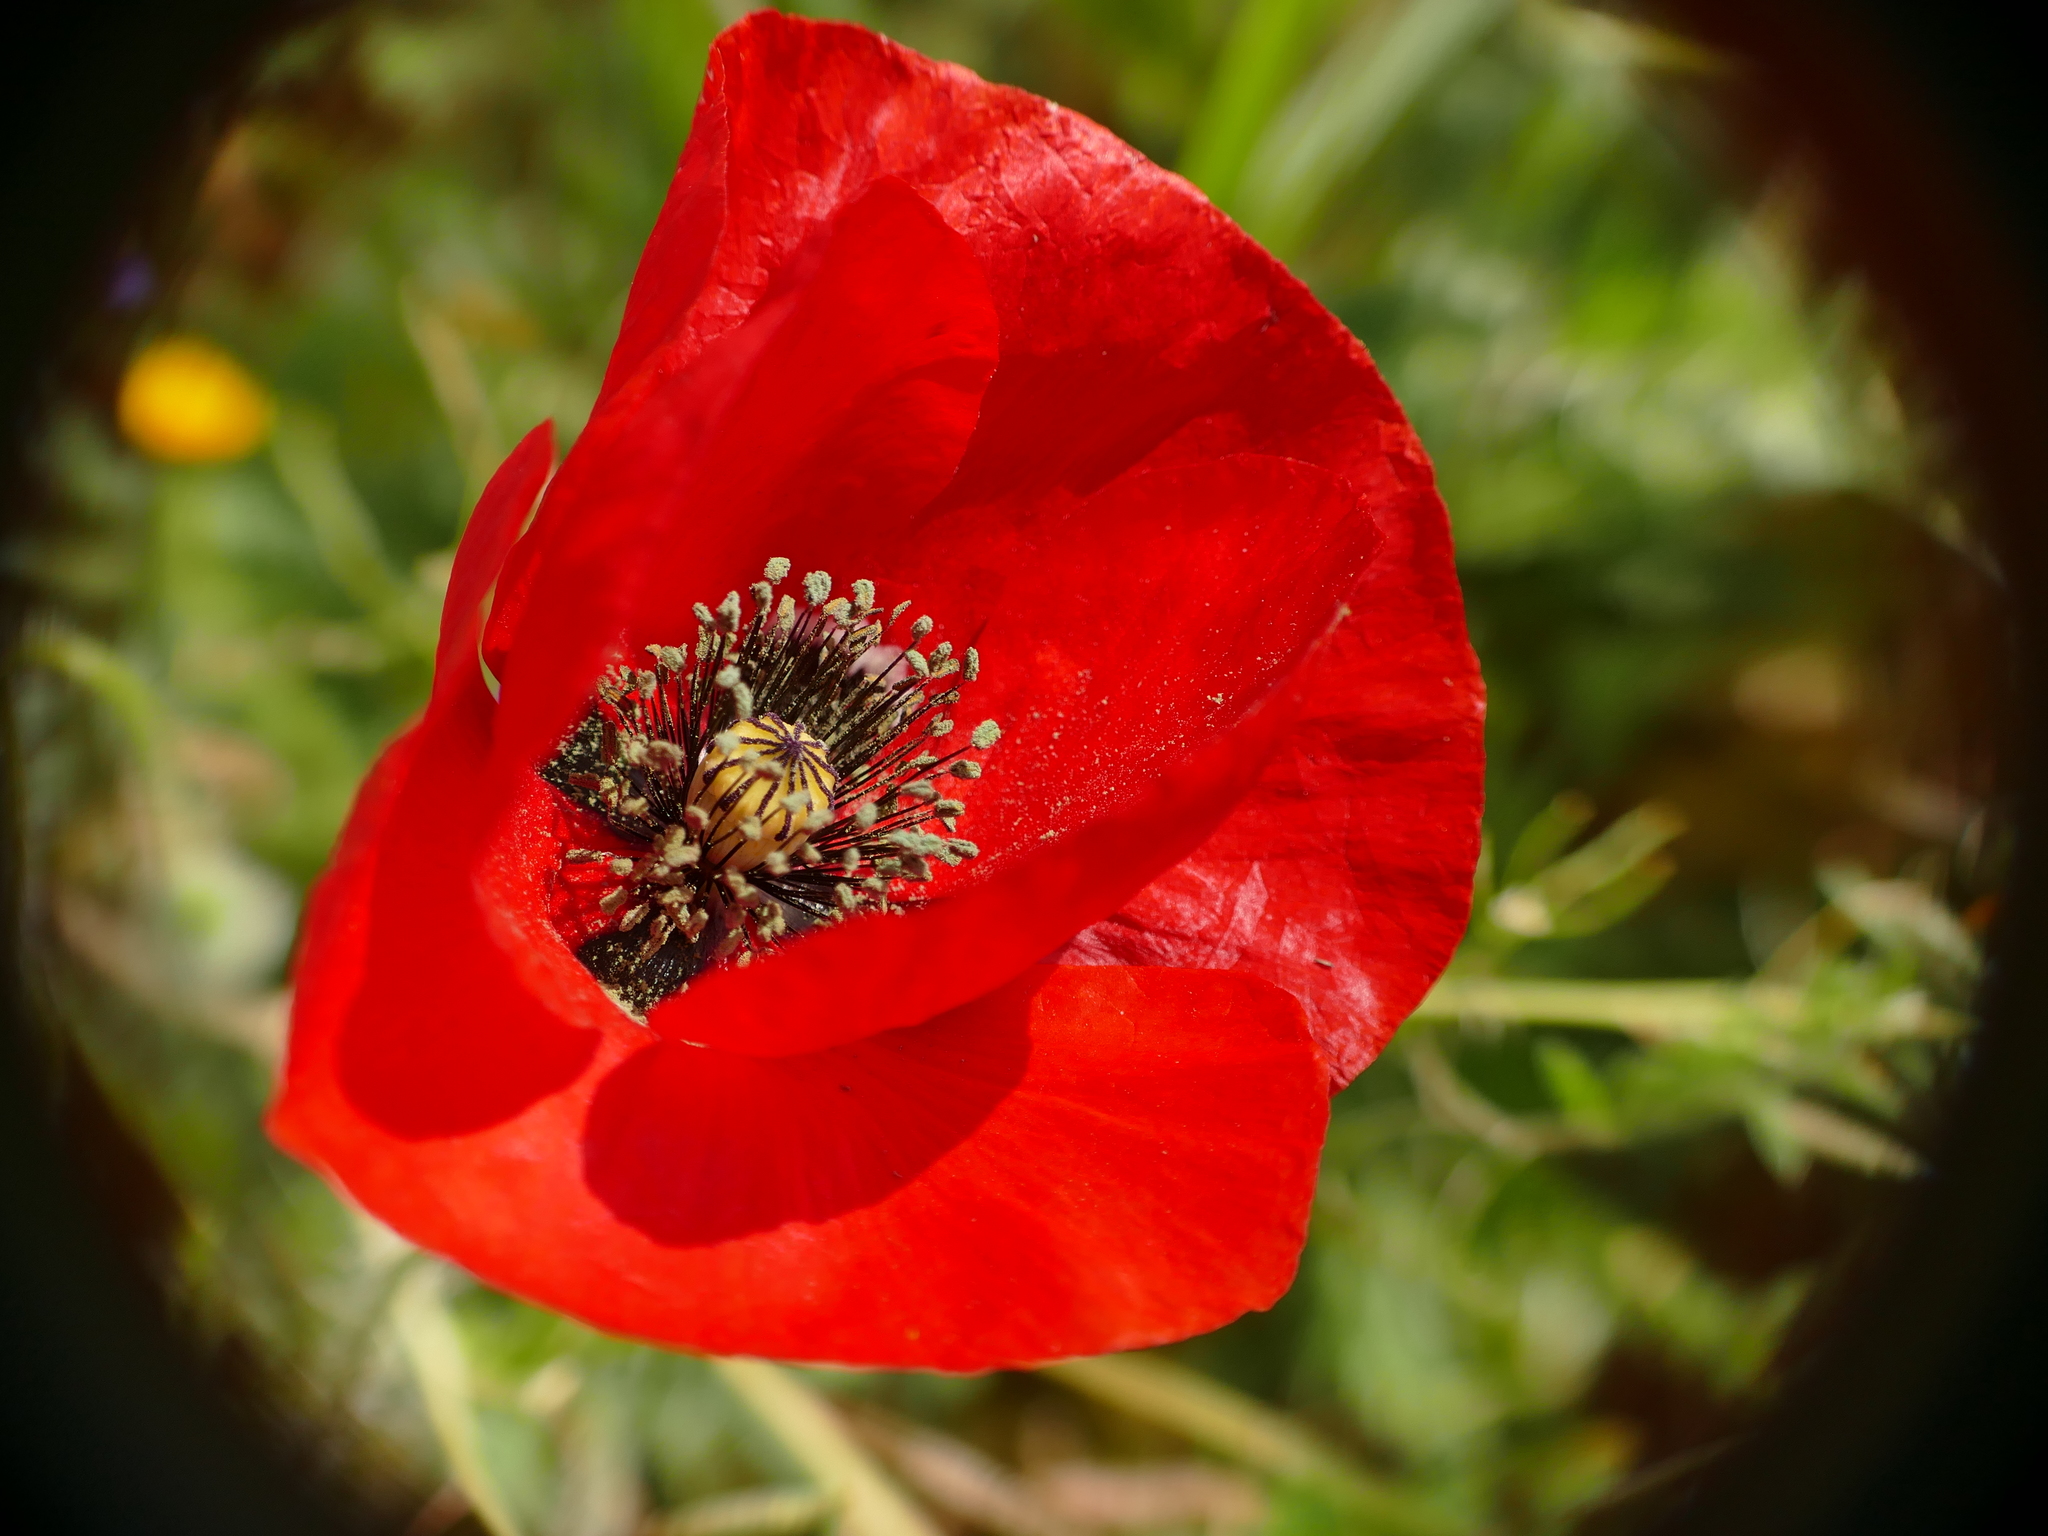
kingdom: Plantae
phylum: Tracheophyta
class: Magnoliopsida
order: Ranunculales
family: Papaveraceae
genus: Papaver
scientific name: Papaver rhoeas
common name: Corn poppy
